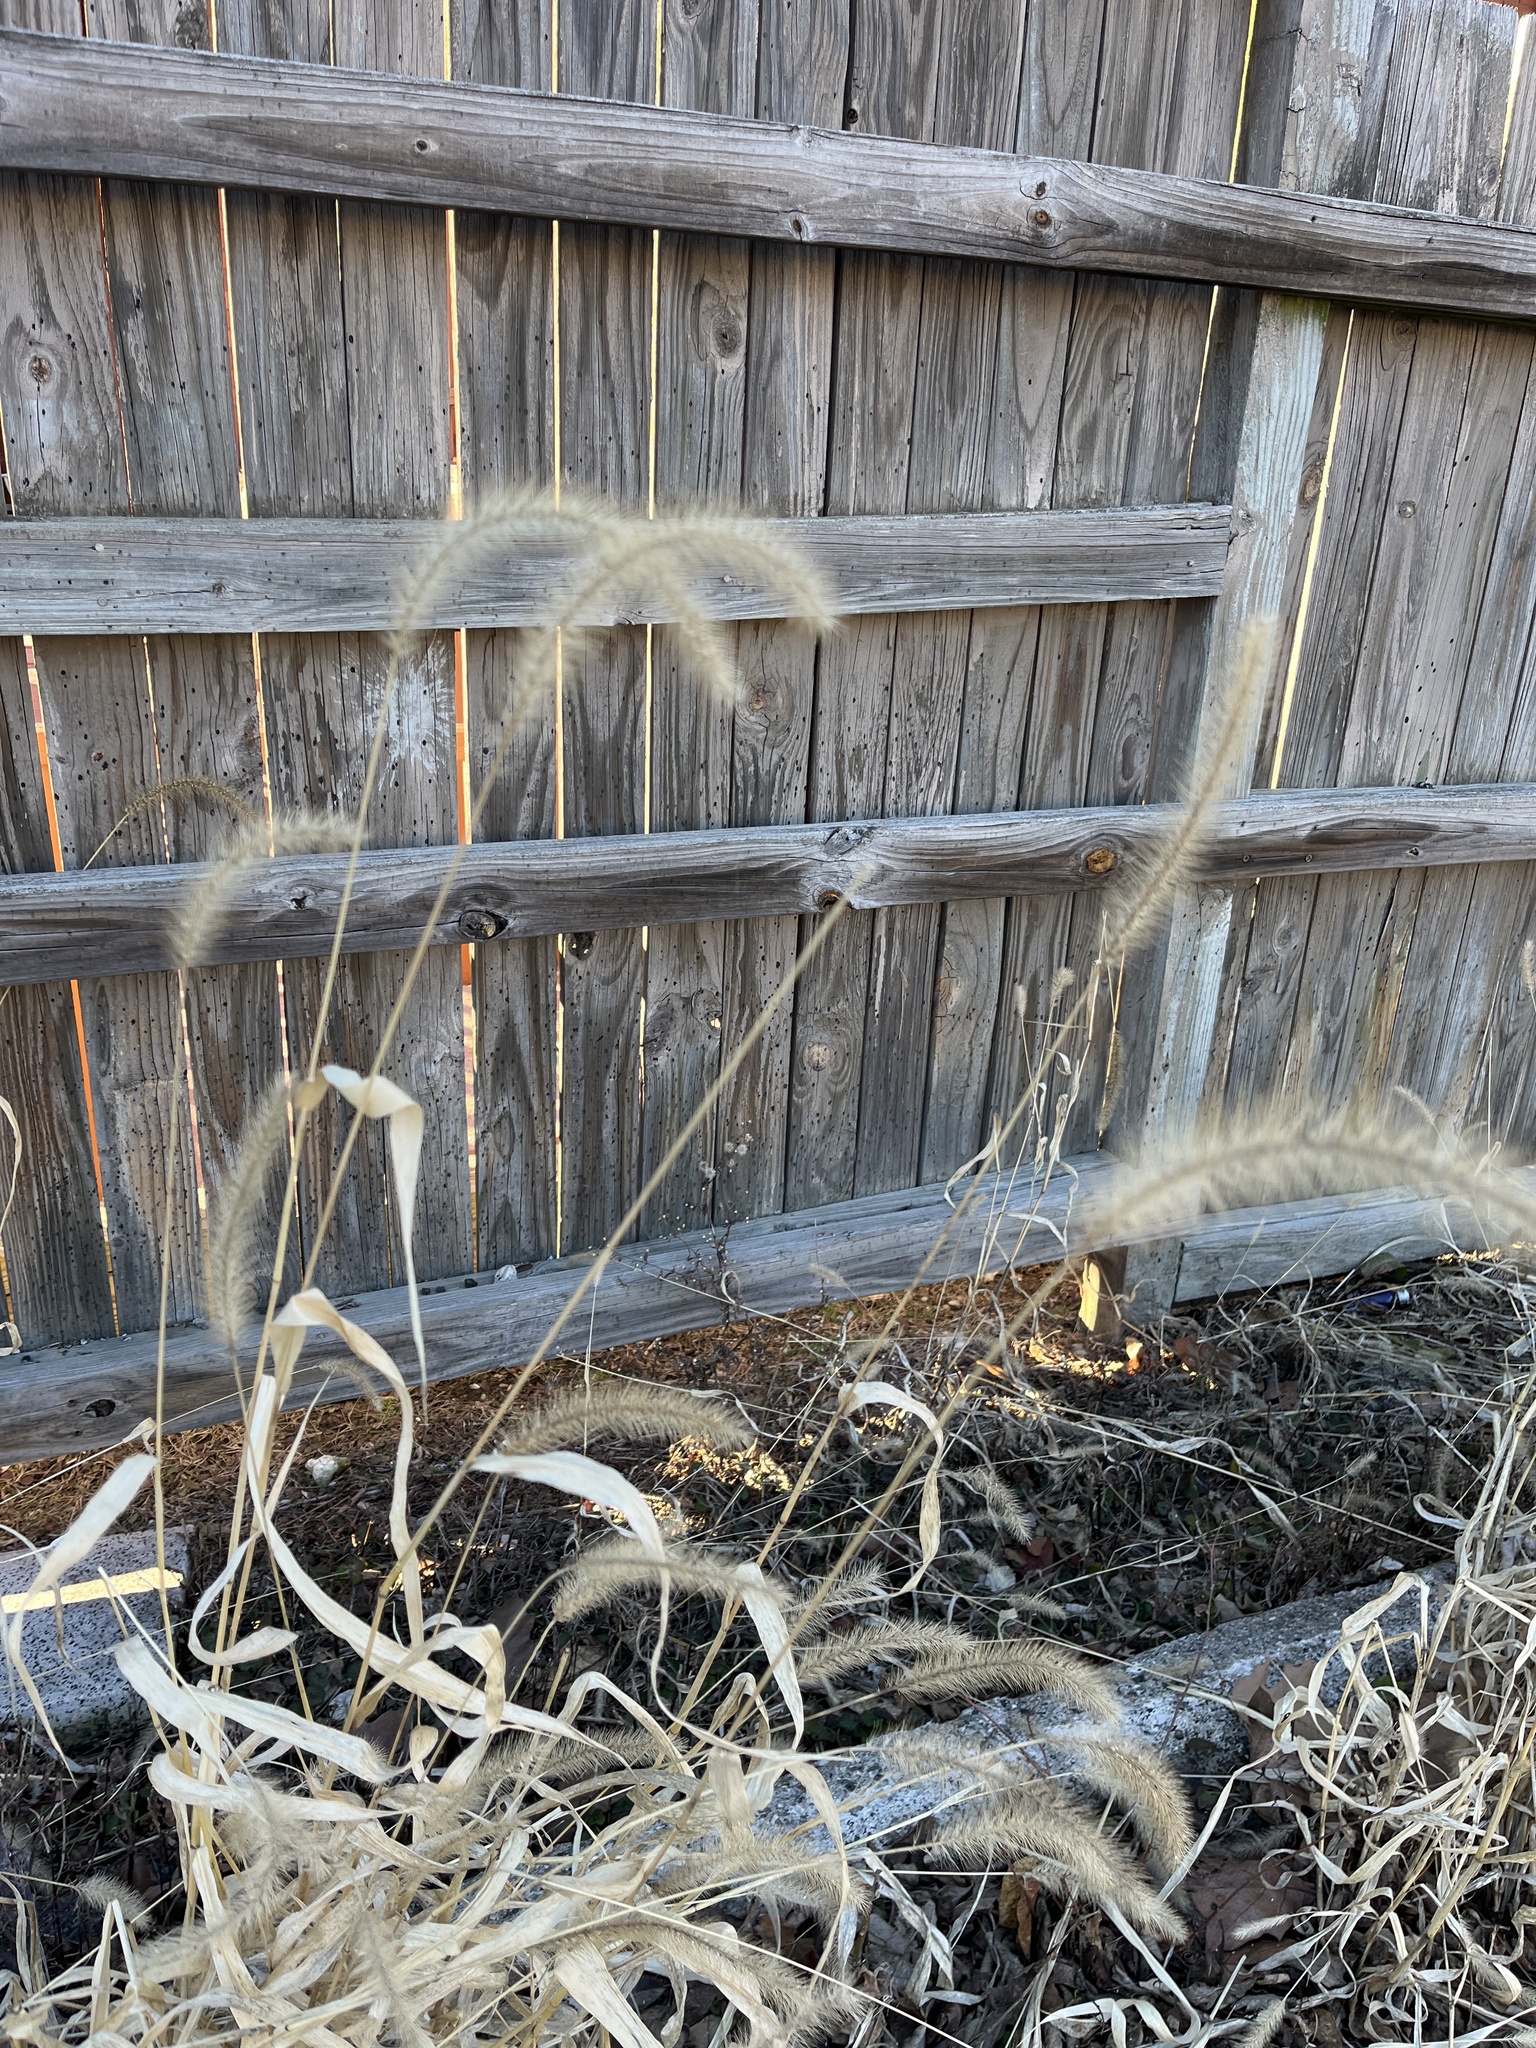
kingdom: Plantae
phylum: Tracheophyta
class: Liliopsida
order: Poales
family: Poaceae
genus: Setaria
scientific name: Setaria faberi
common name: Nodding bristle-grass
